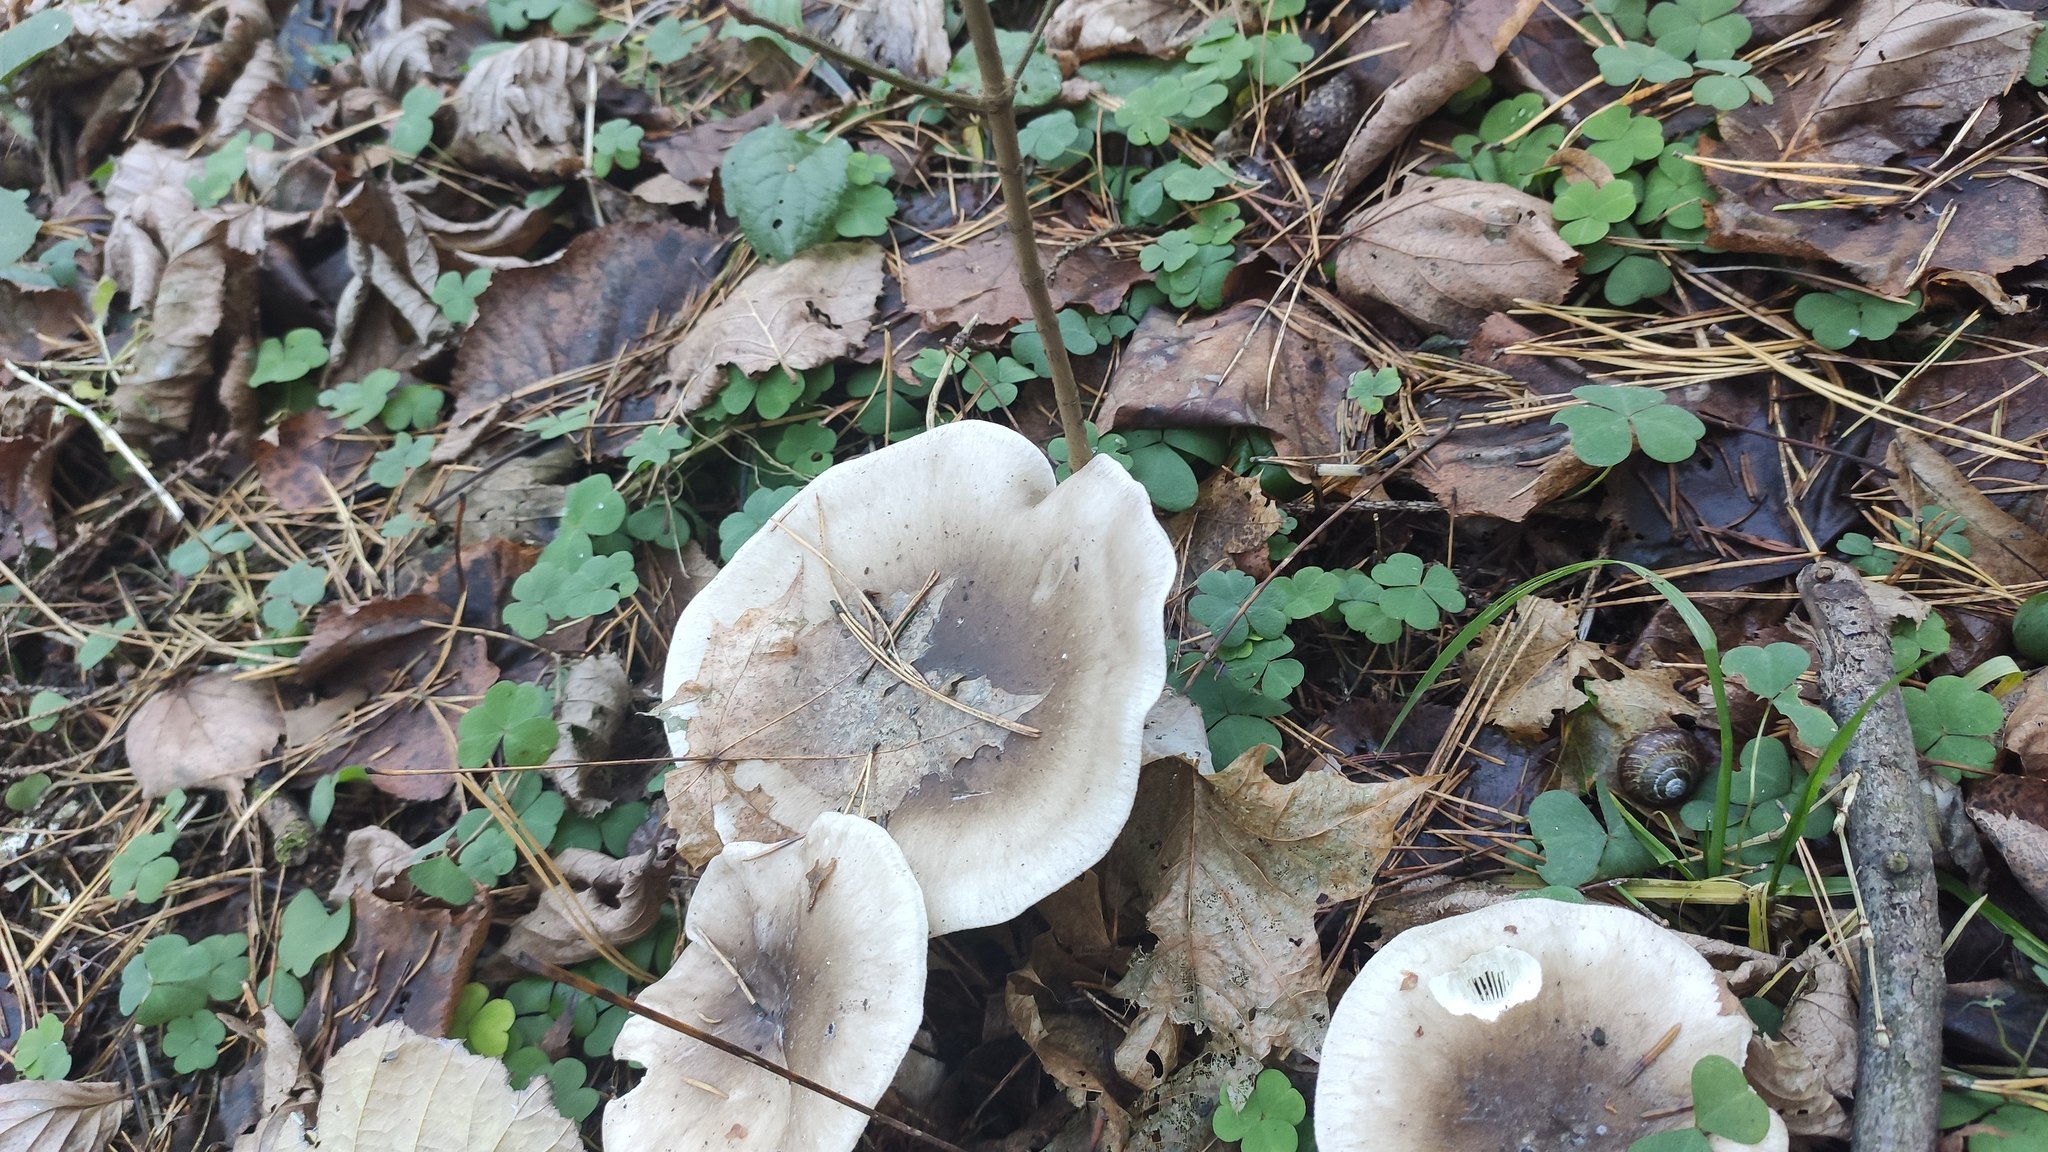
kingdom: Fungi
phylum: Basidiomycota
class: Agaricomycetes
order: Agaricales
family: Tricholomataceae
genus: Clitocybe
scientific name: Clitocybe nebularis
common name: Clouded agaric
